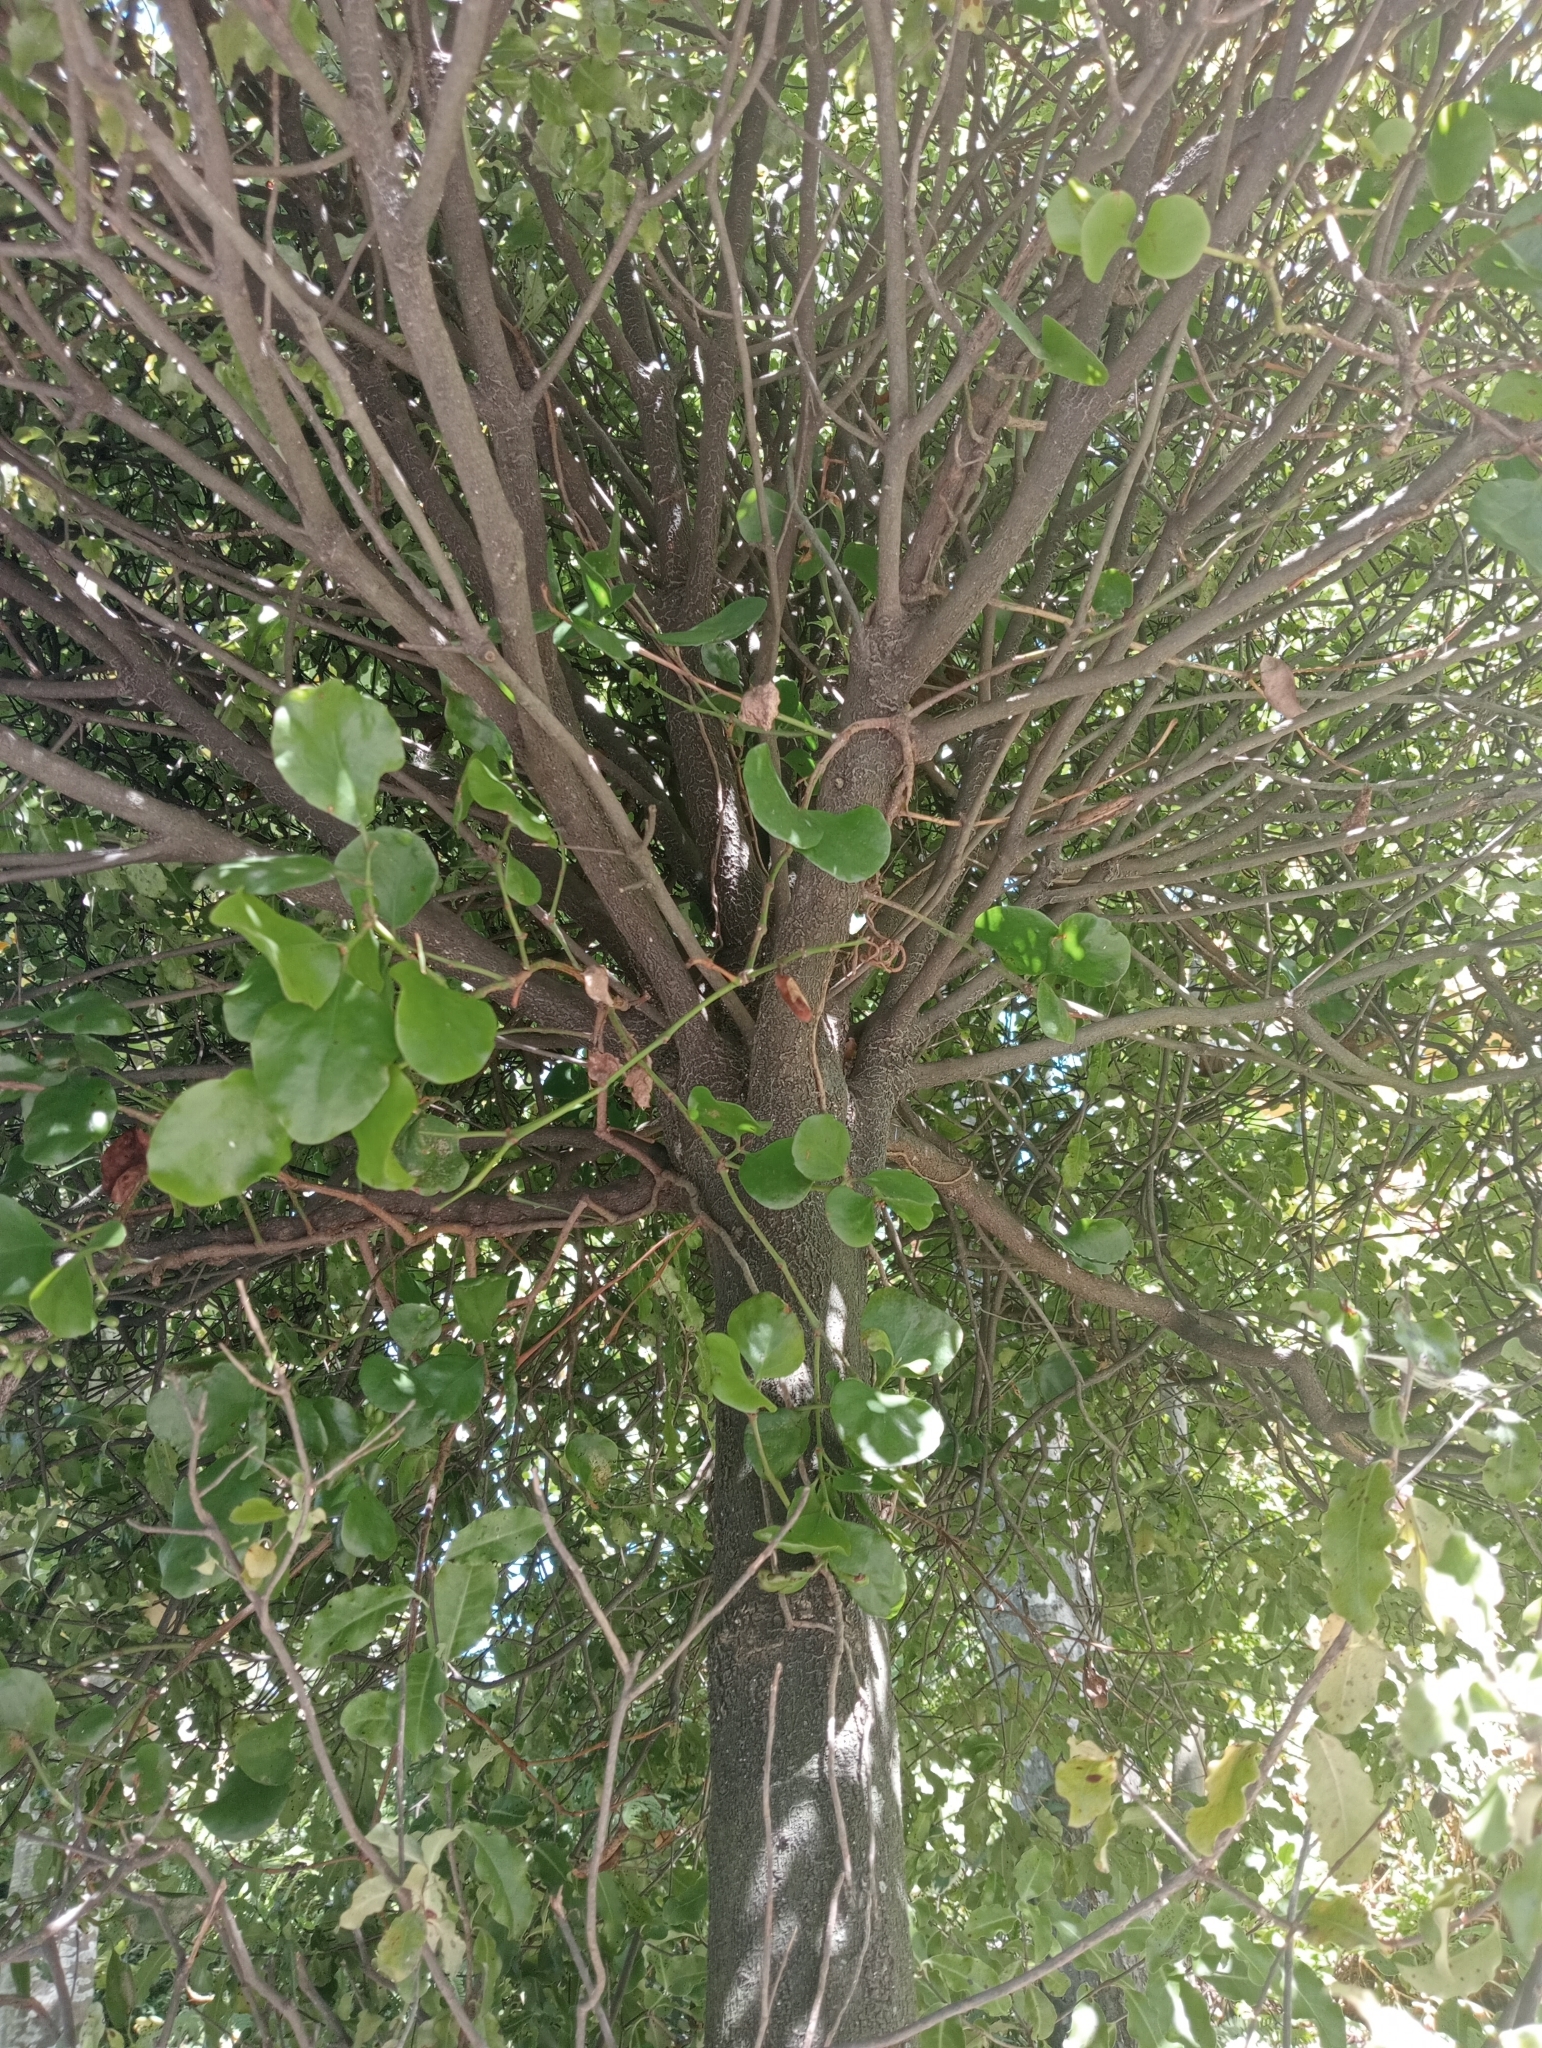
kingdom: Plantae
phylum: Tracheophyta
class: Magnoliopsida
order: Santalales
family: Loranthaceae
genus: Ileostylus
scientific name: Ileostylus micranthus
